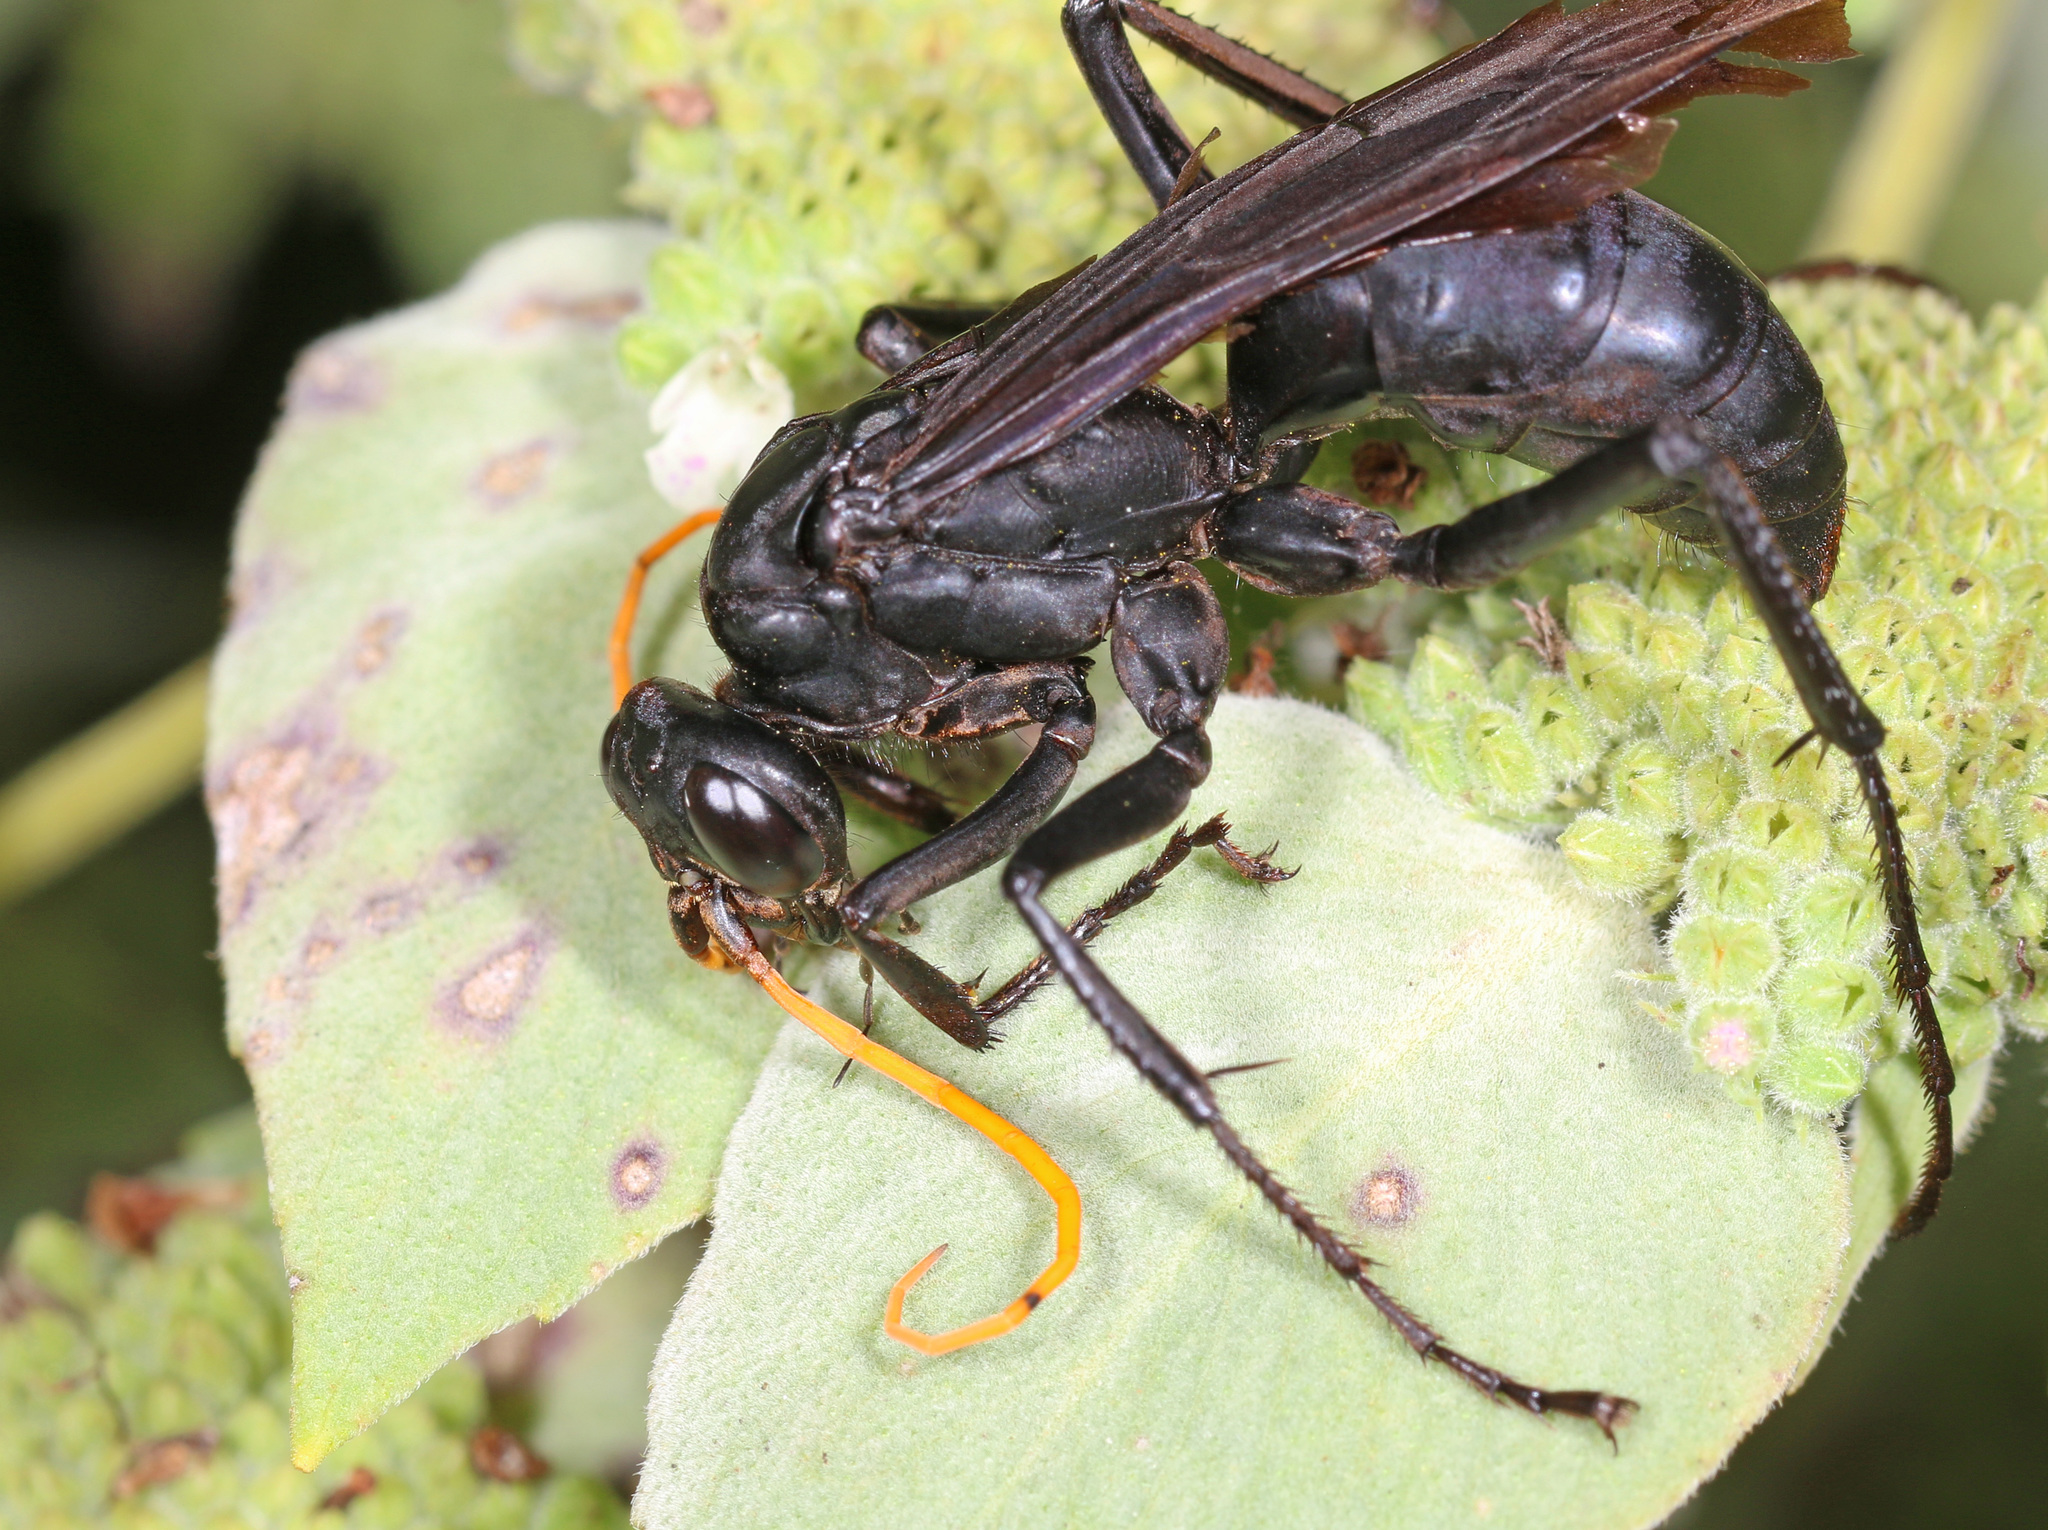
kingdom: Animalia
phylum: Arthropoda
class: Insecta
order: Hymenoptera
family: Pompilidae
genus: Entypus
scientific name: Entypus fulvicornis
